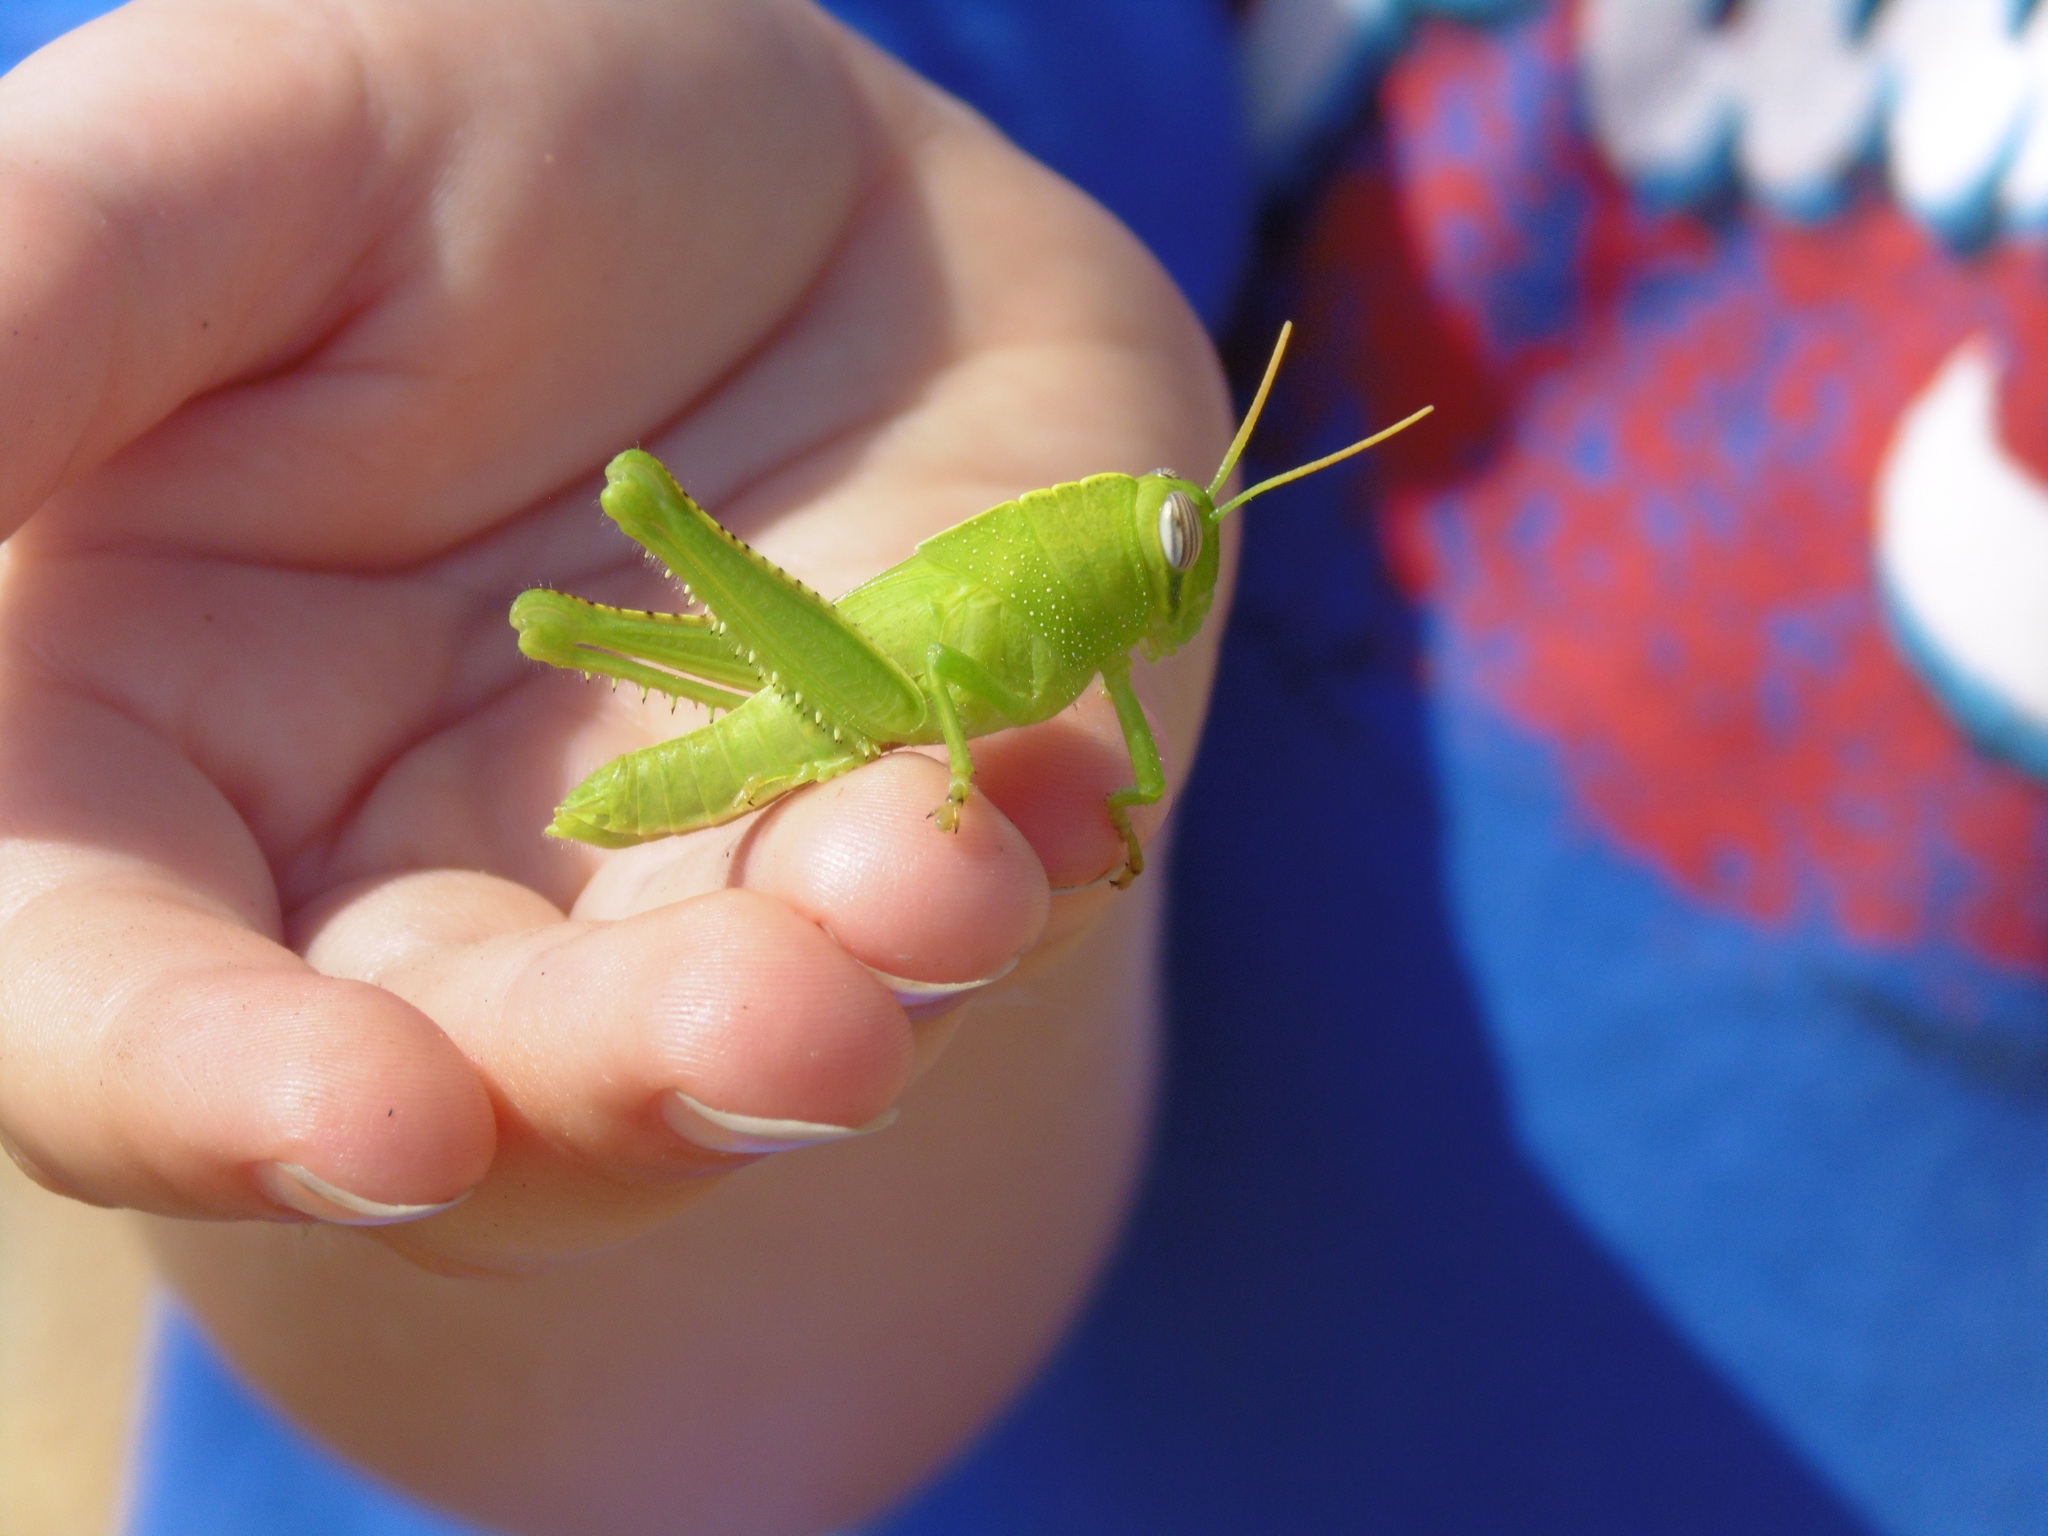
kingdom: Animalia
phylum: Arthropoda
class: Insecta
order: Orthoptera
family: Acrididae
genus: Anacridium
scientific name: Anacridium aegyptium
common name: Egyptian grasshopper
